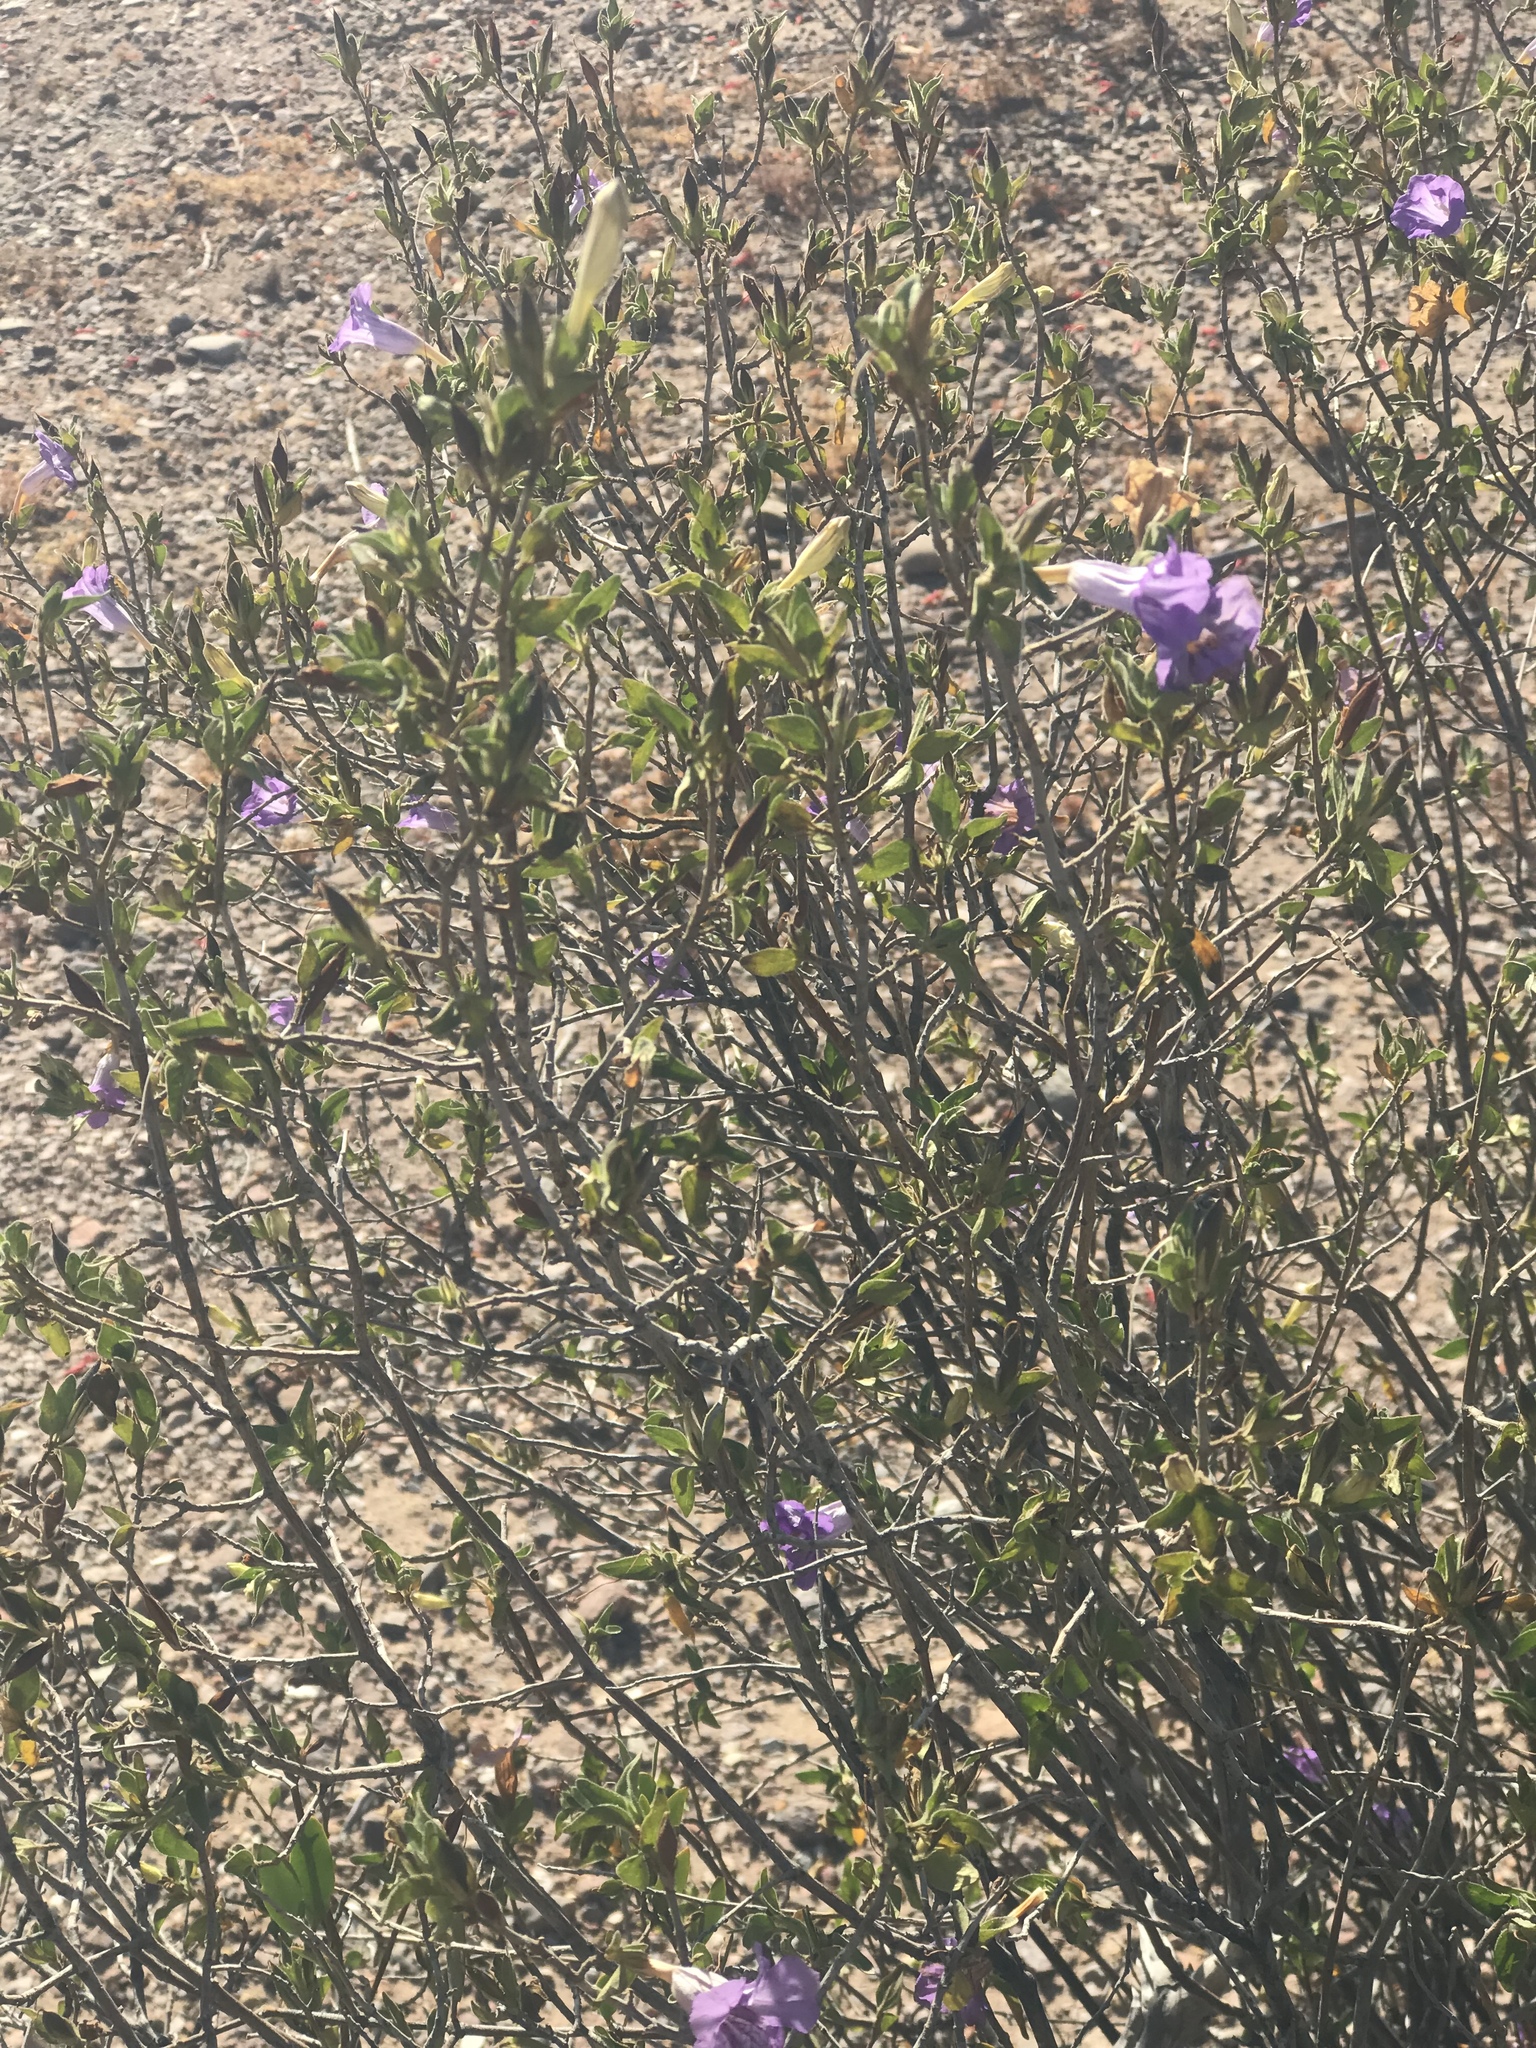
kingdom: Plantae
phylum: Tracheophyta
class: Magnoliopsida
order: Lamiales
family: Acanthaceae
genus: Ruellia
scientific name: Ruellia californica
